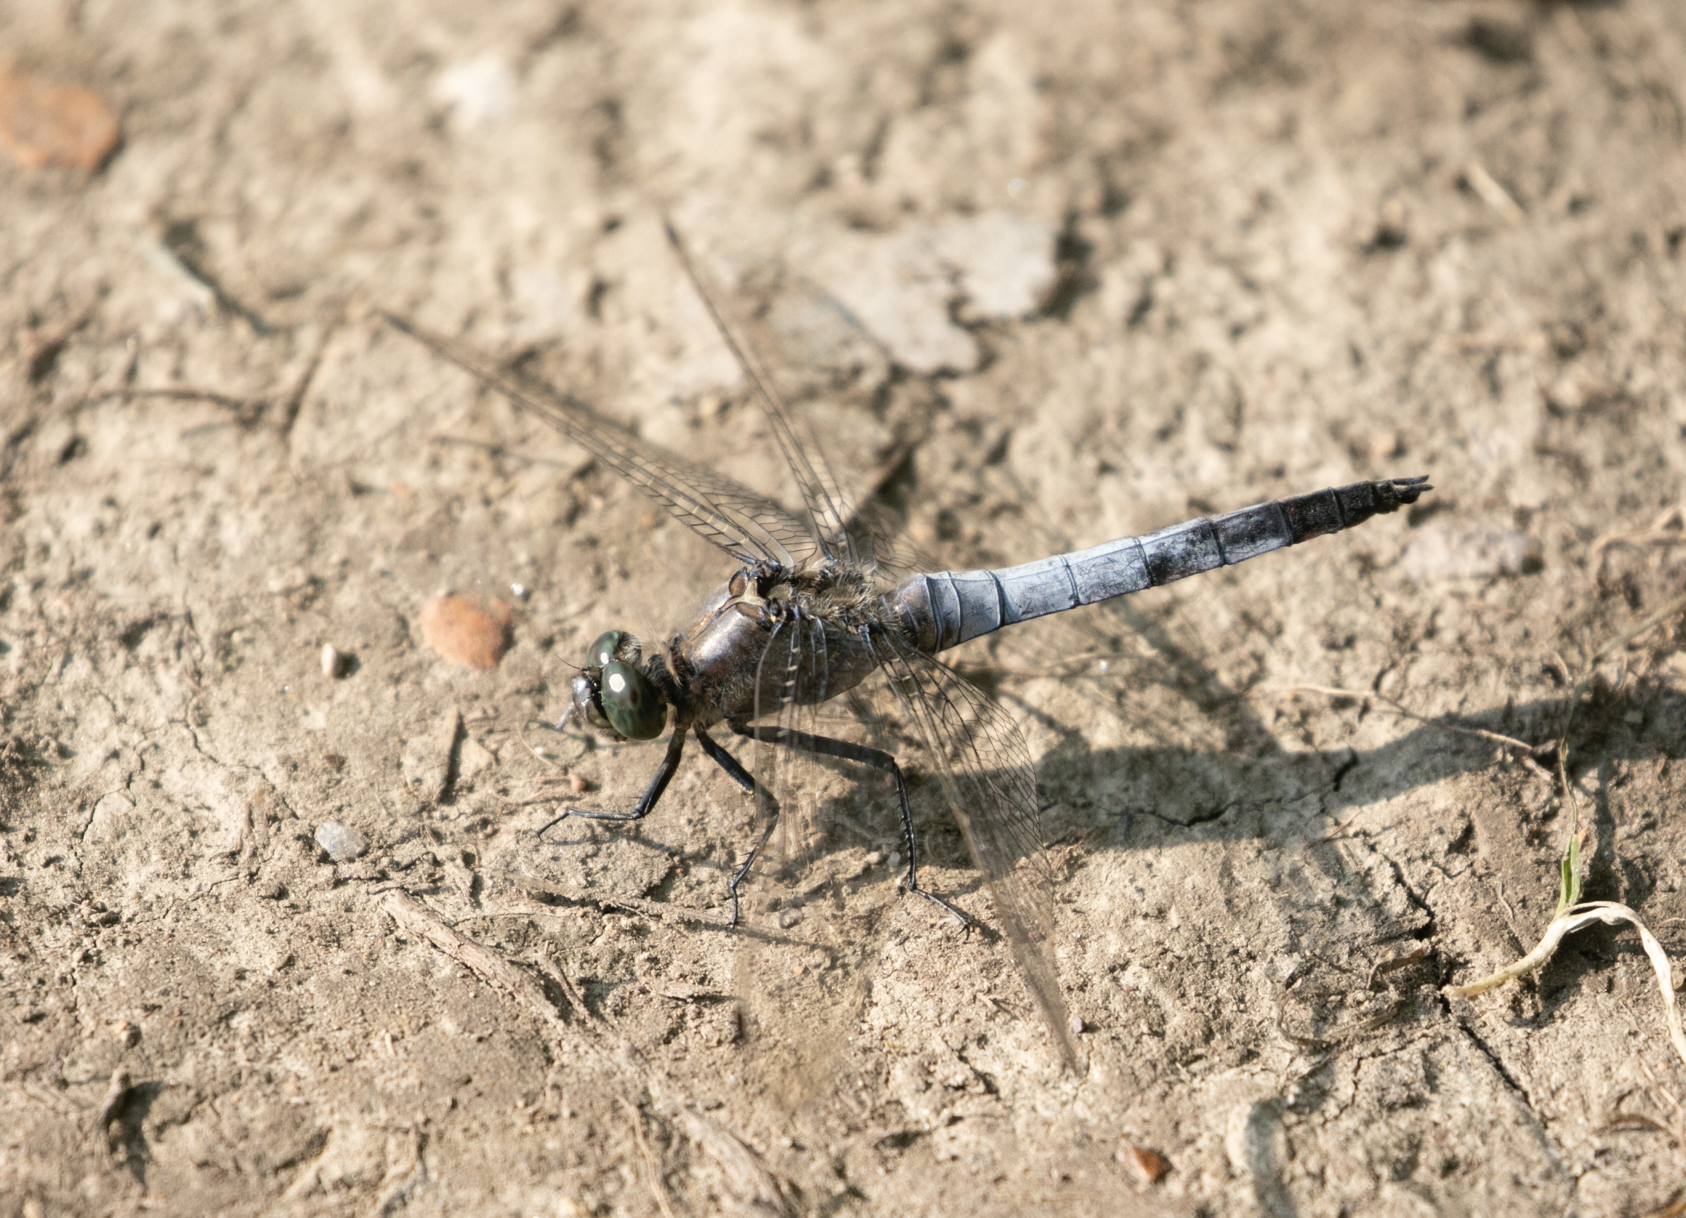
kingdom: Animalia
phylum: Arthropoda
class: Insecta
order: Odonata
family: Libellulidae
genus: Orthetrum
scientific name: Orthetrum cancellatum
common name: Black-tailed skimmer
